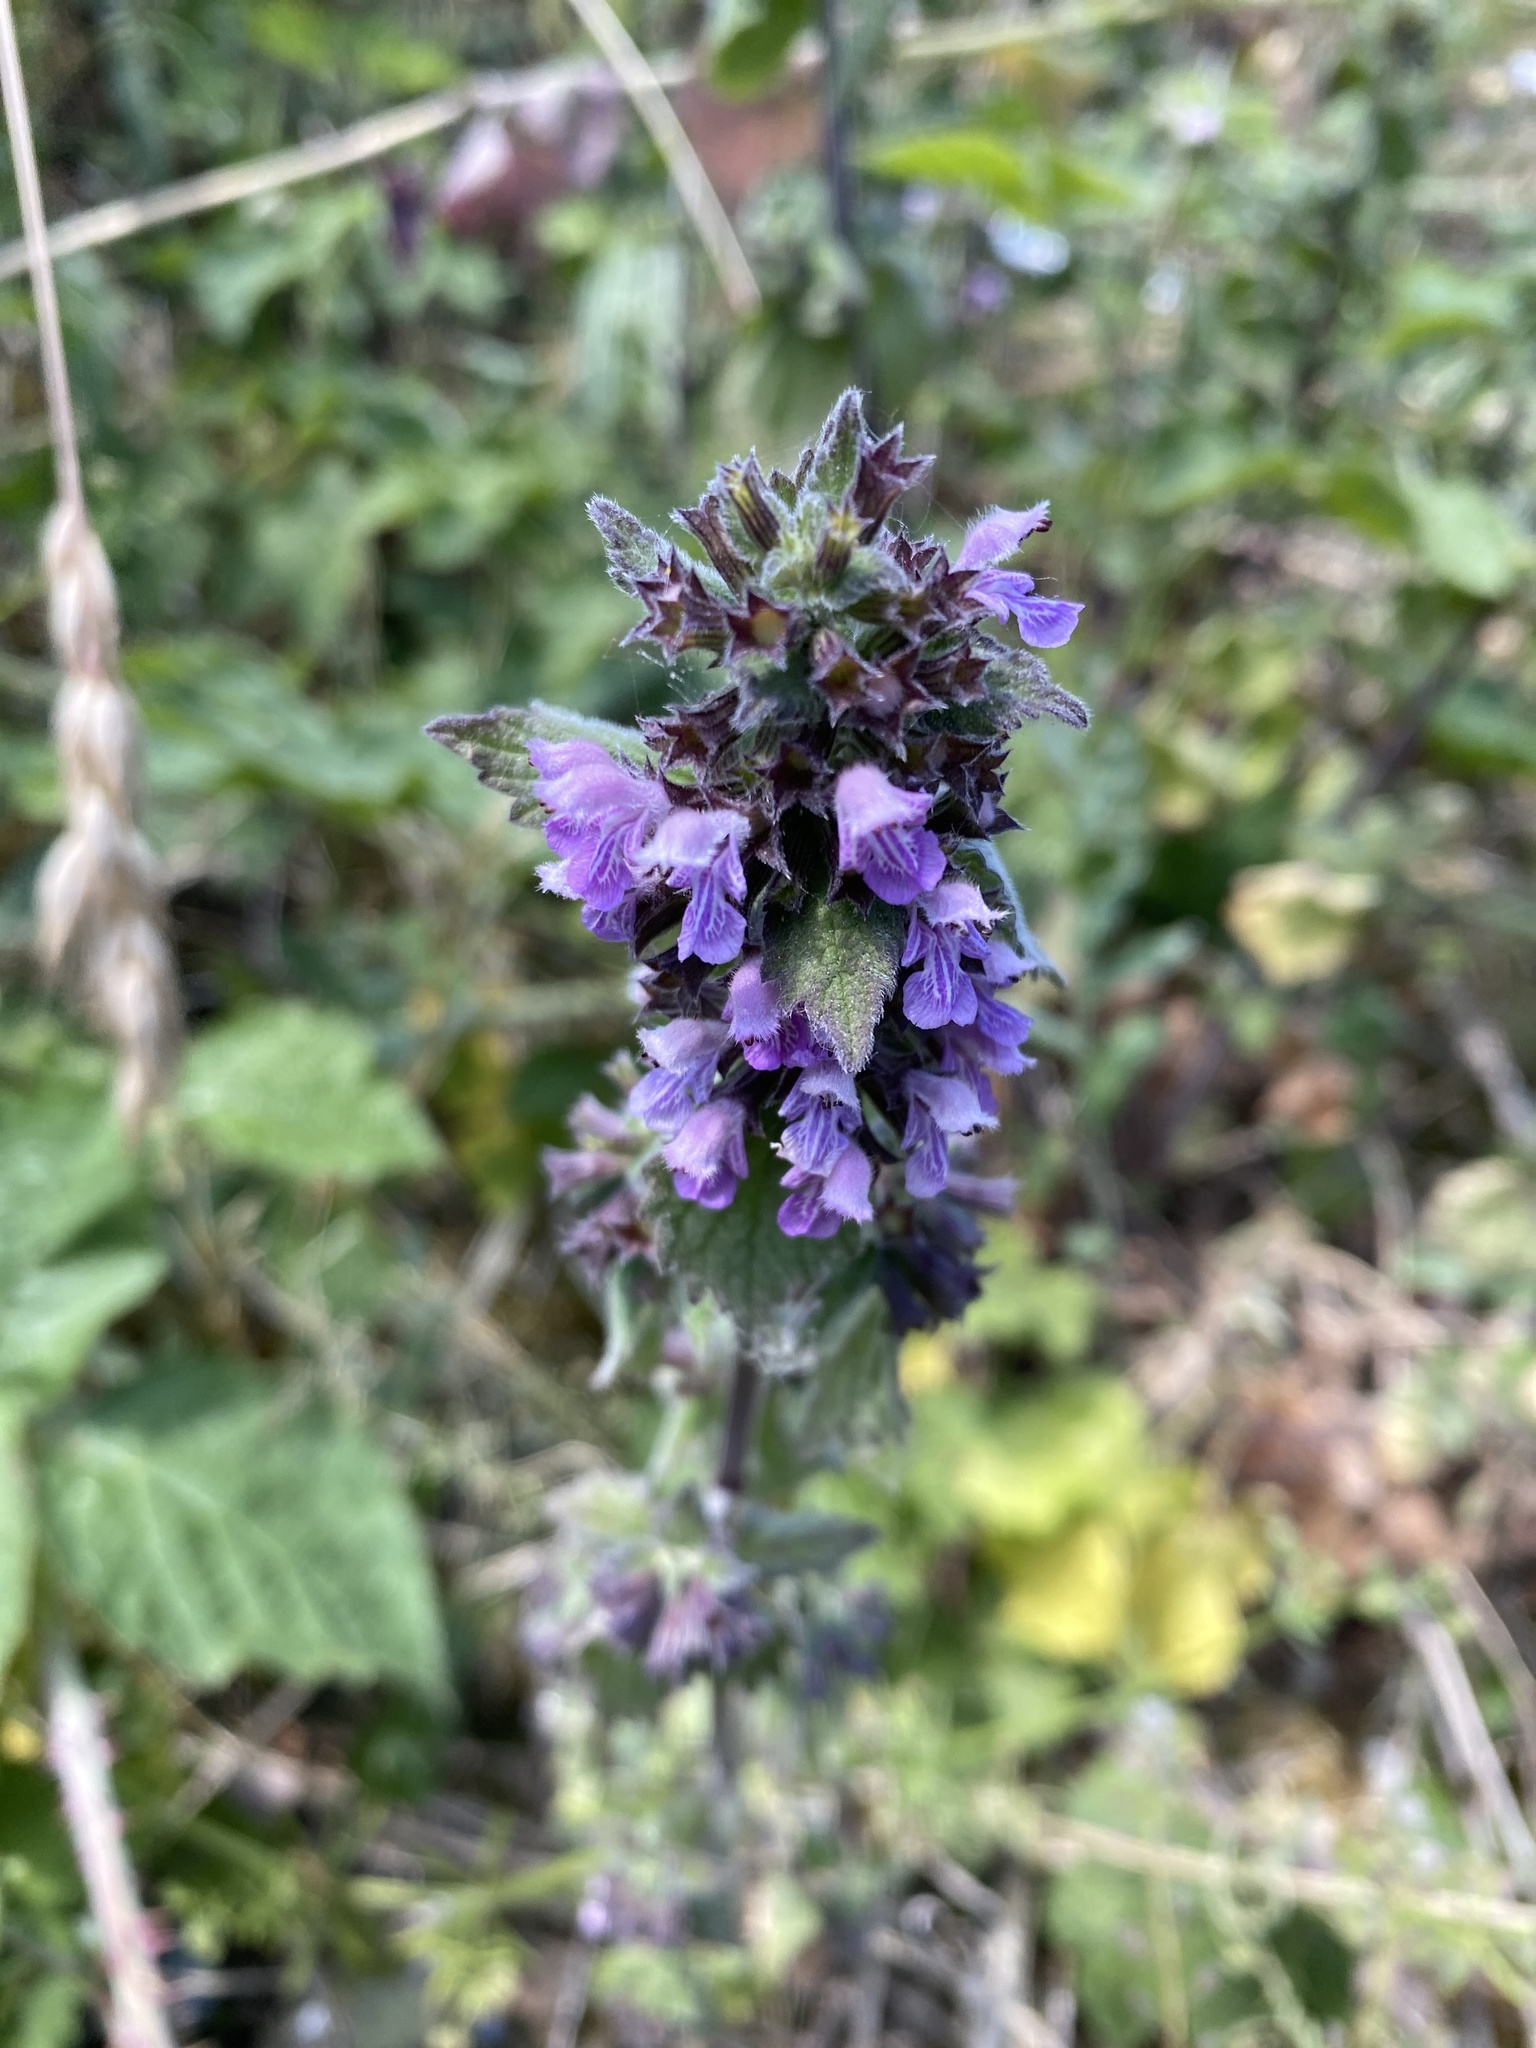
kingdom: Plantae
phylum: Tracheophyta
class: Magnoliopsida
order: Lamiales
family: Lamiaceae
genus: Ballota
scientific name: Ballota nigra
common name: Black horehound
